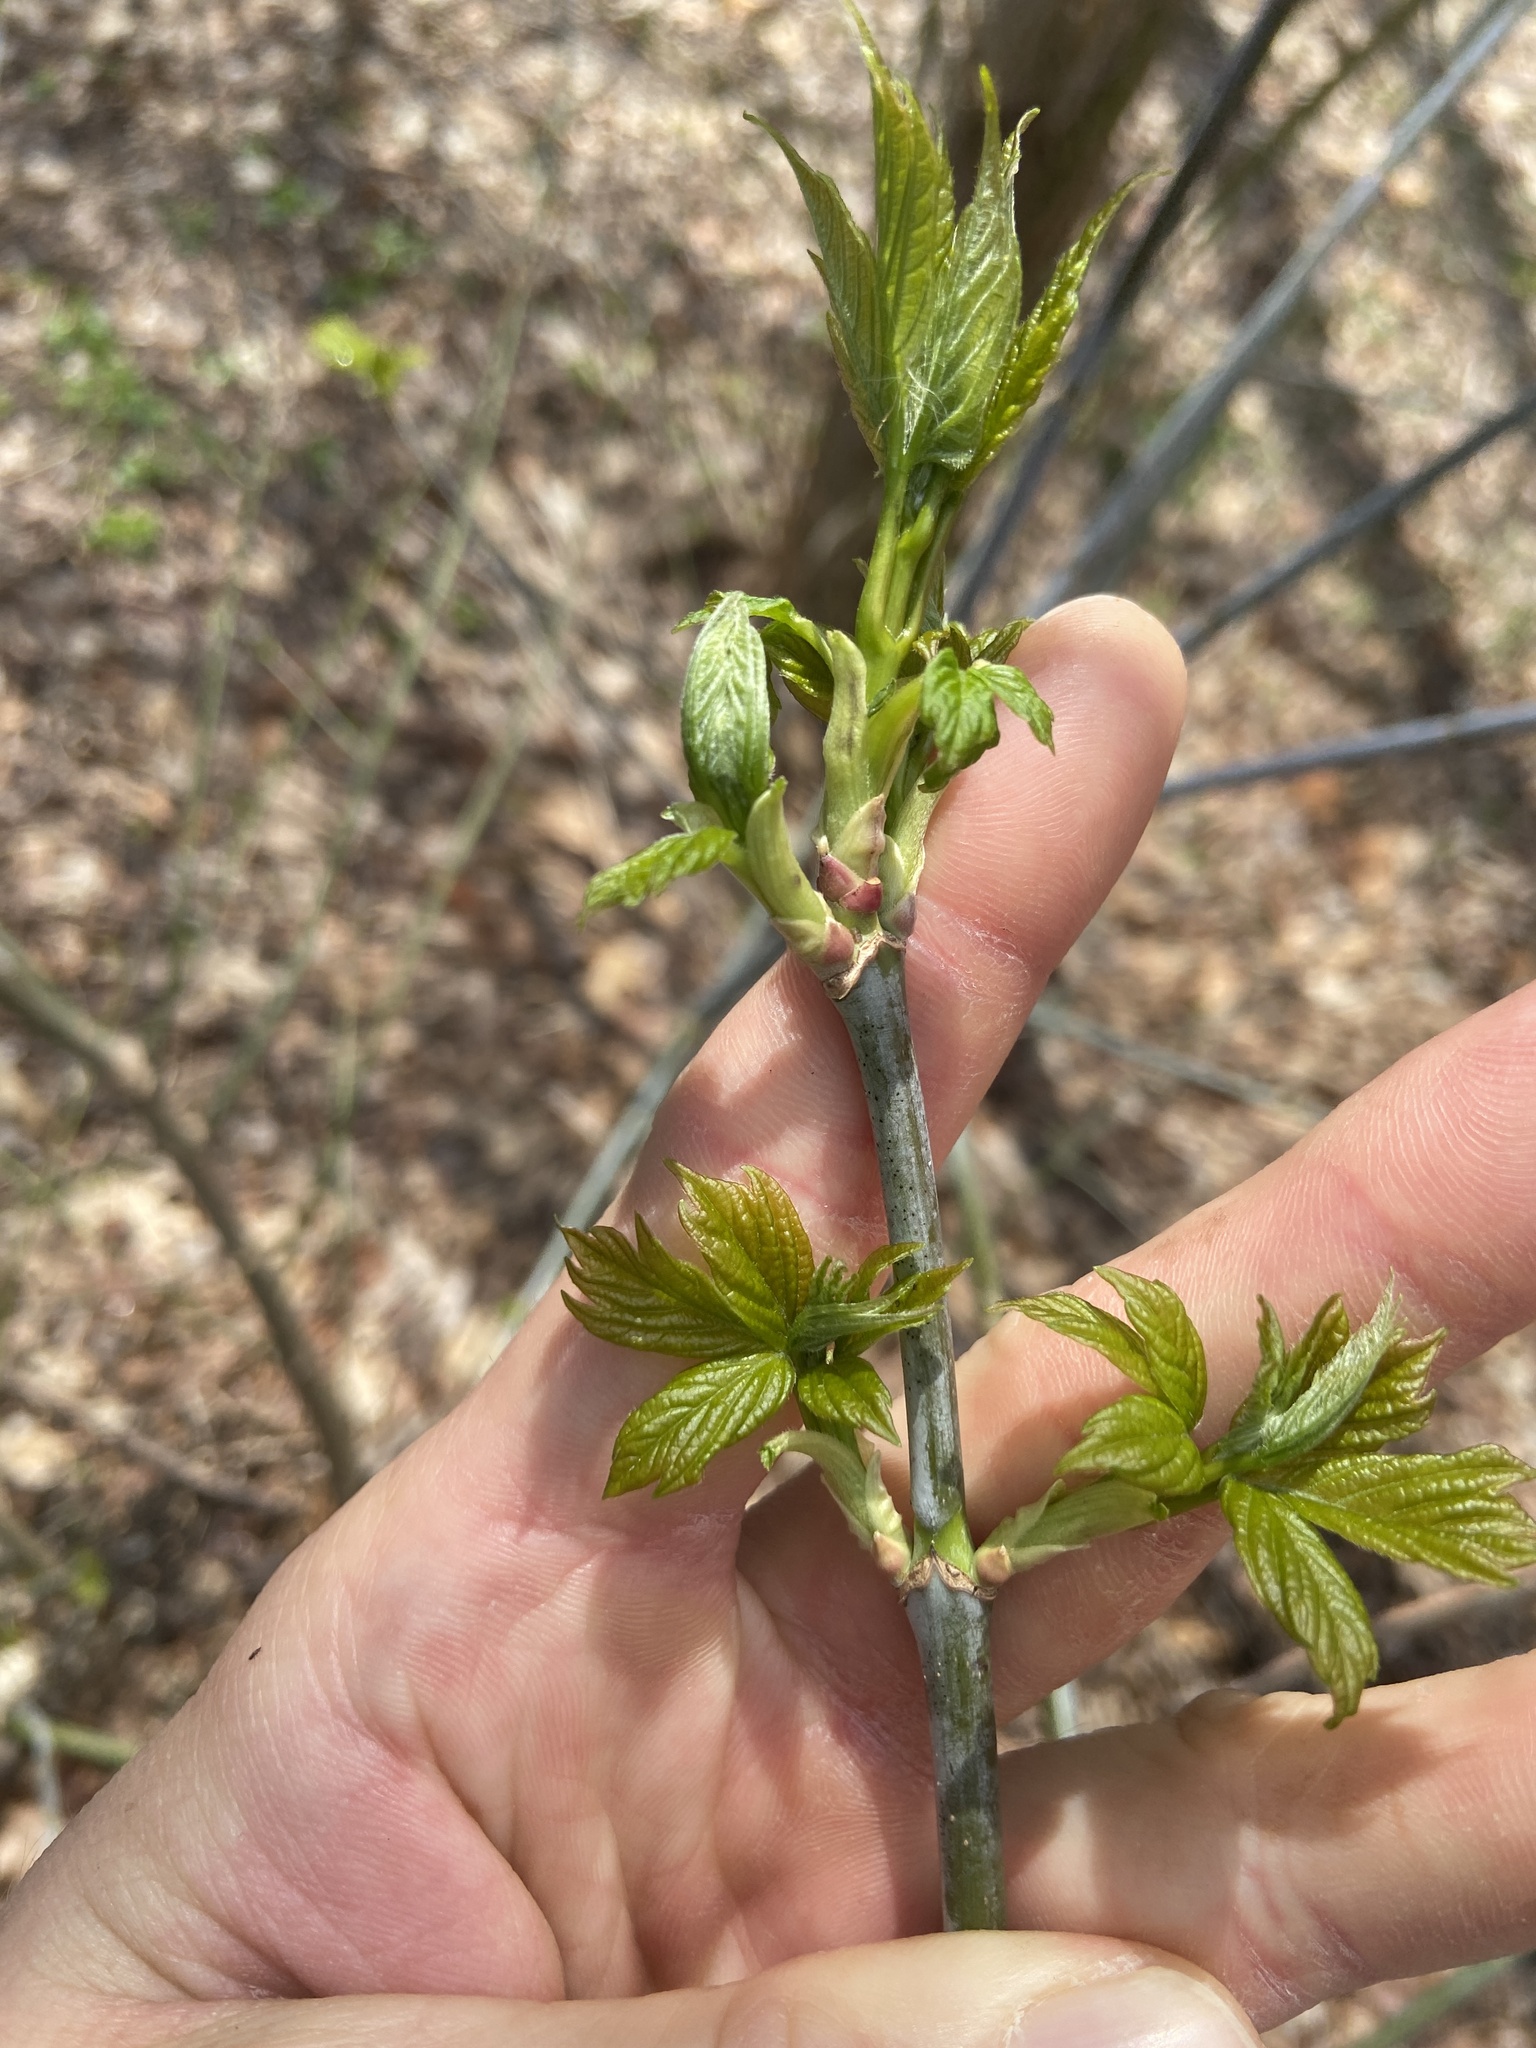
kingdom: Plantae
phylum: Tracheophyta
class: Magnoliopsida
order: Sapindales
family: Sapindaceae
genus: Acer
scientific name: Acer negundo
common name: Ashleaf maple
